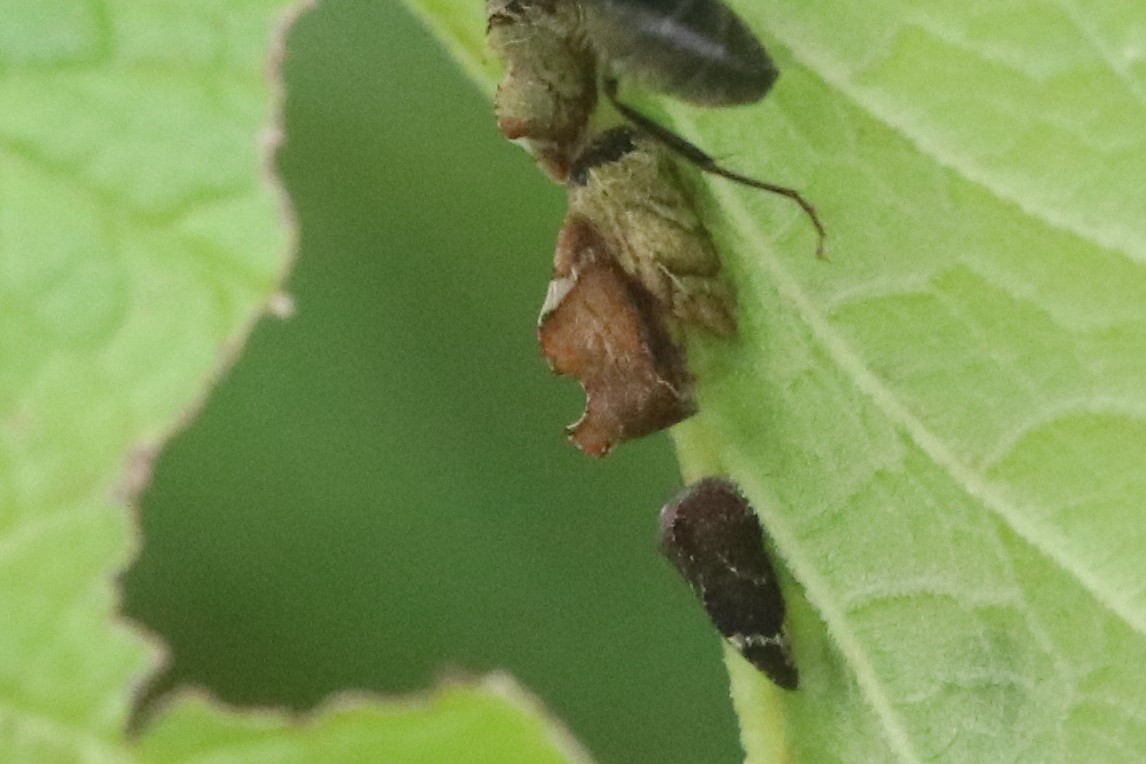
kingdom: Animalia
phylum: Arthropoda
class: Insecta
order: Hemiptera
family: Membracidae
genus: Entylia
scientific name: Entylia carinata
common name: Keeled treehopper
